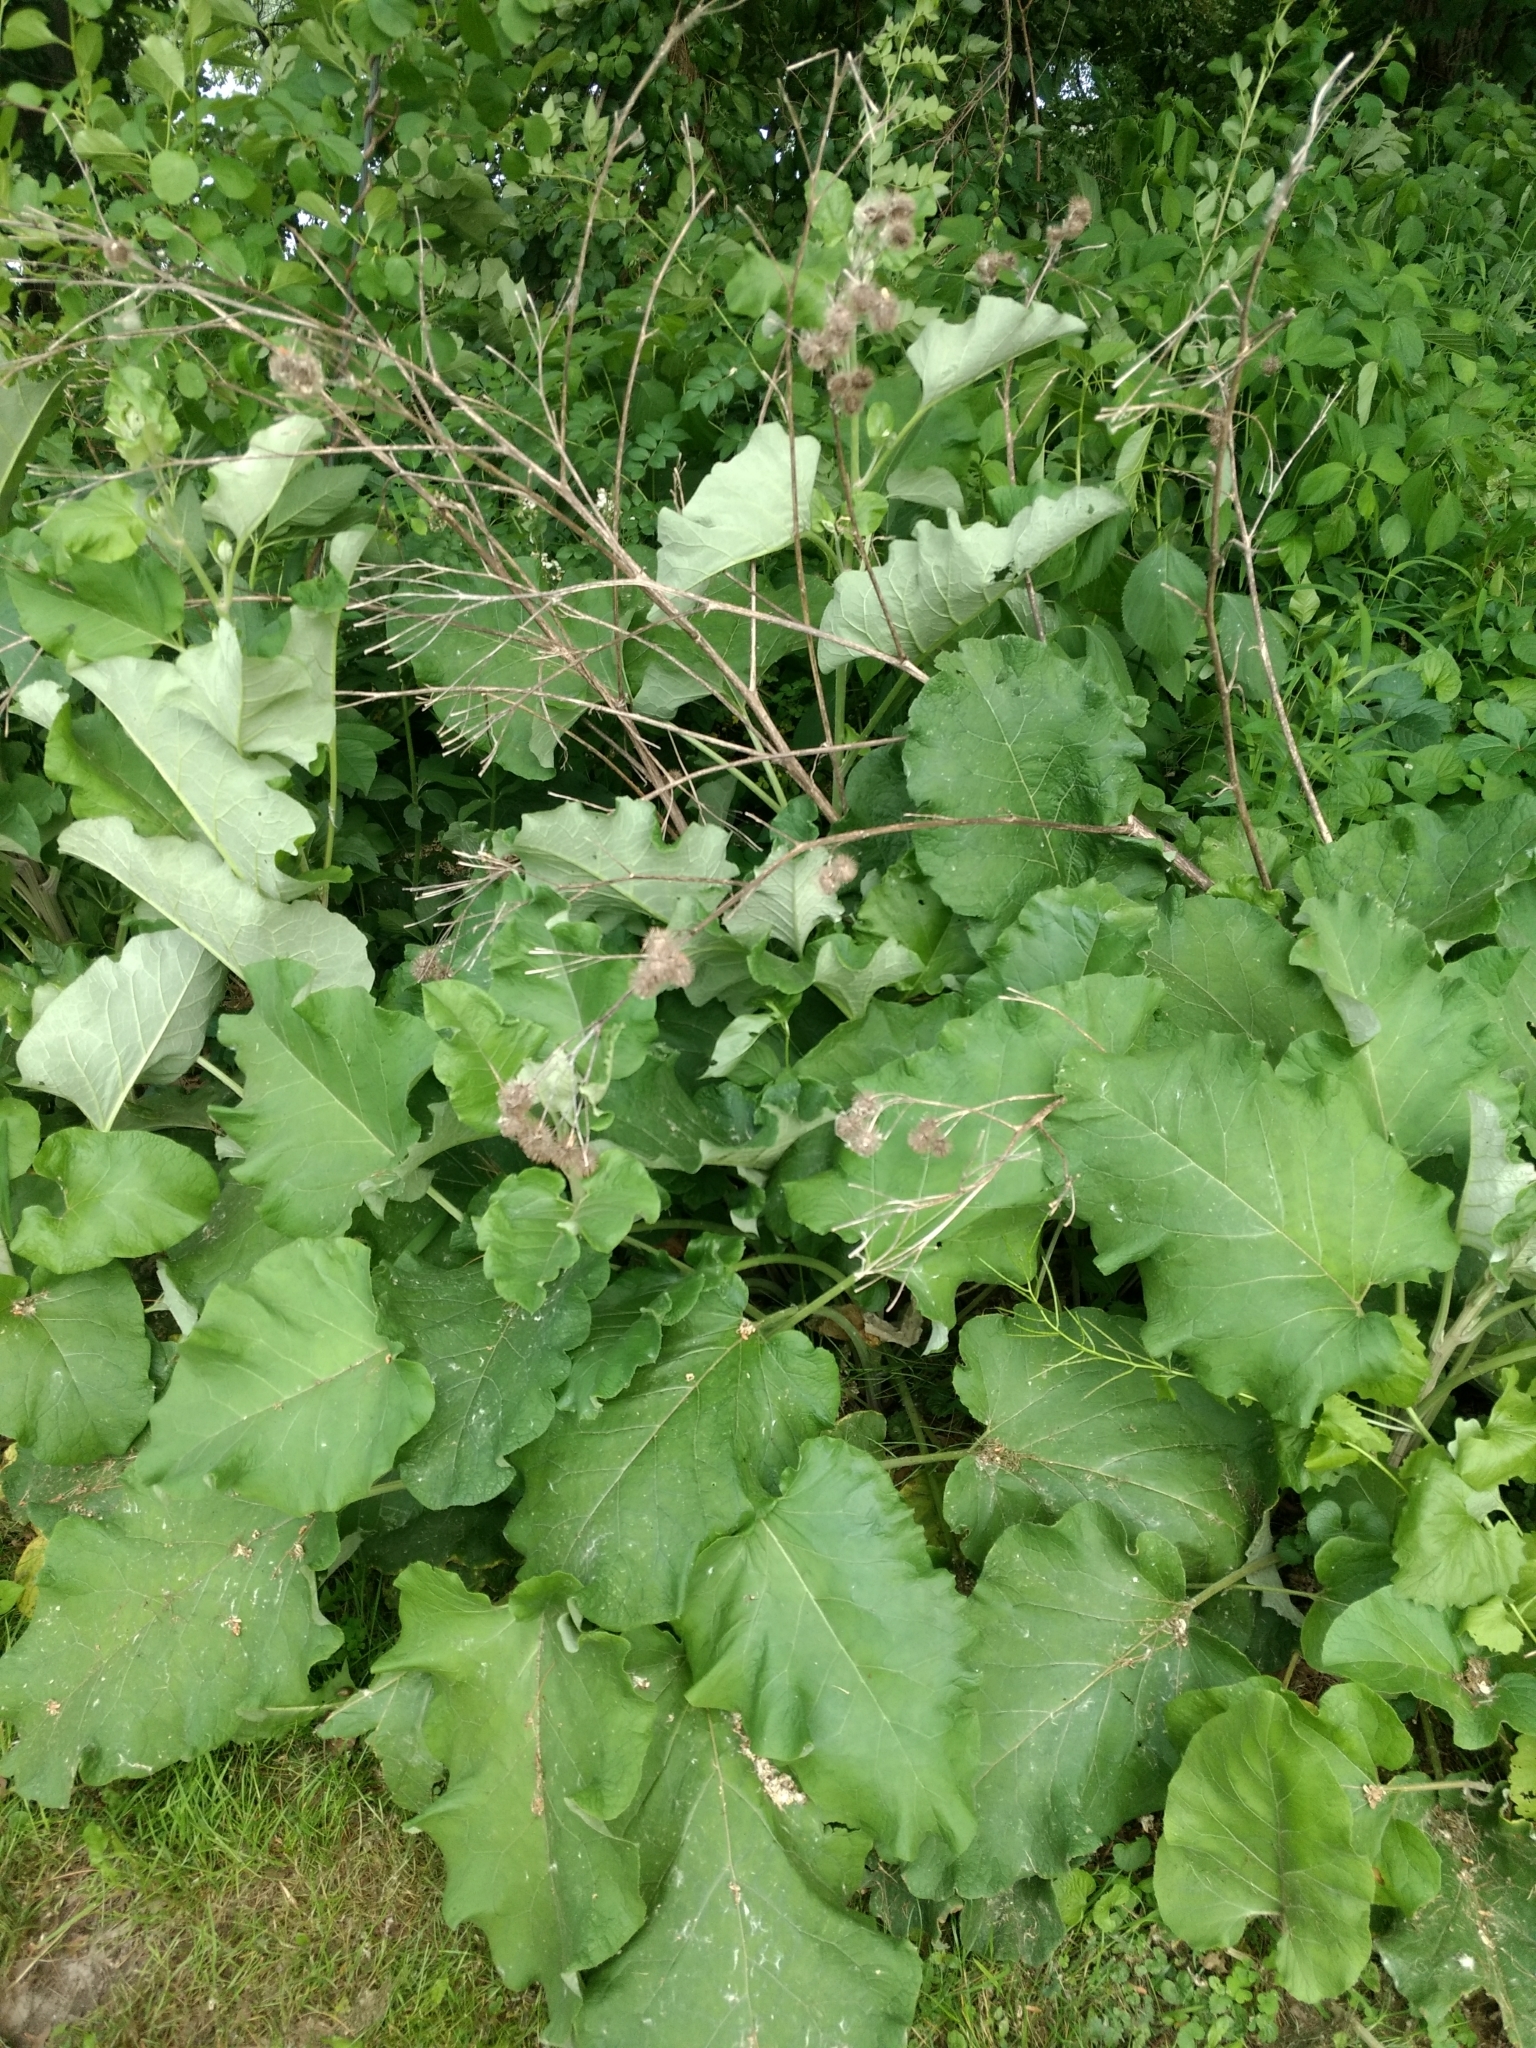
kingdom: Plantae
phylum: Tracheophyta
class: Magnoliopsida
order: Asterales
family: Asteraceae
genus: Arctium
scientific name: Arctium
